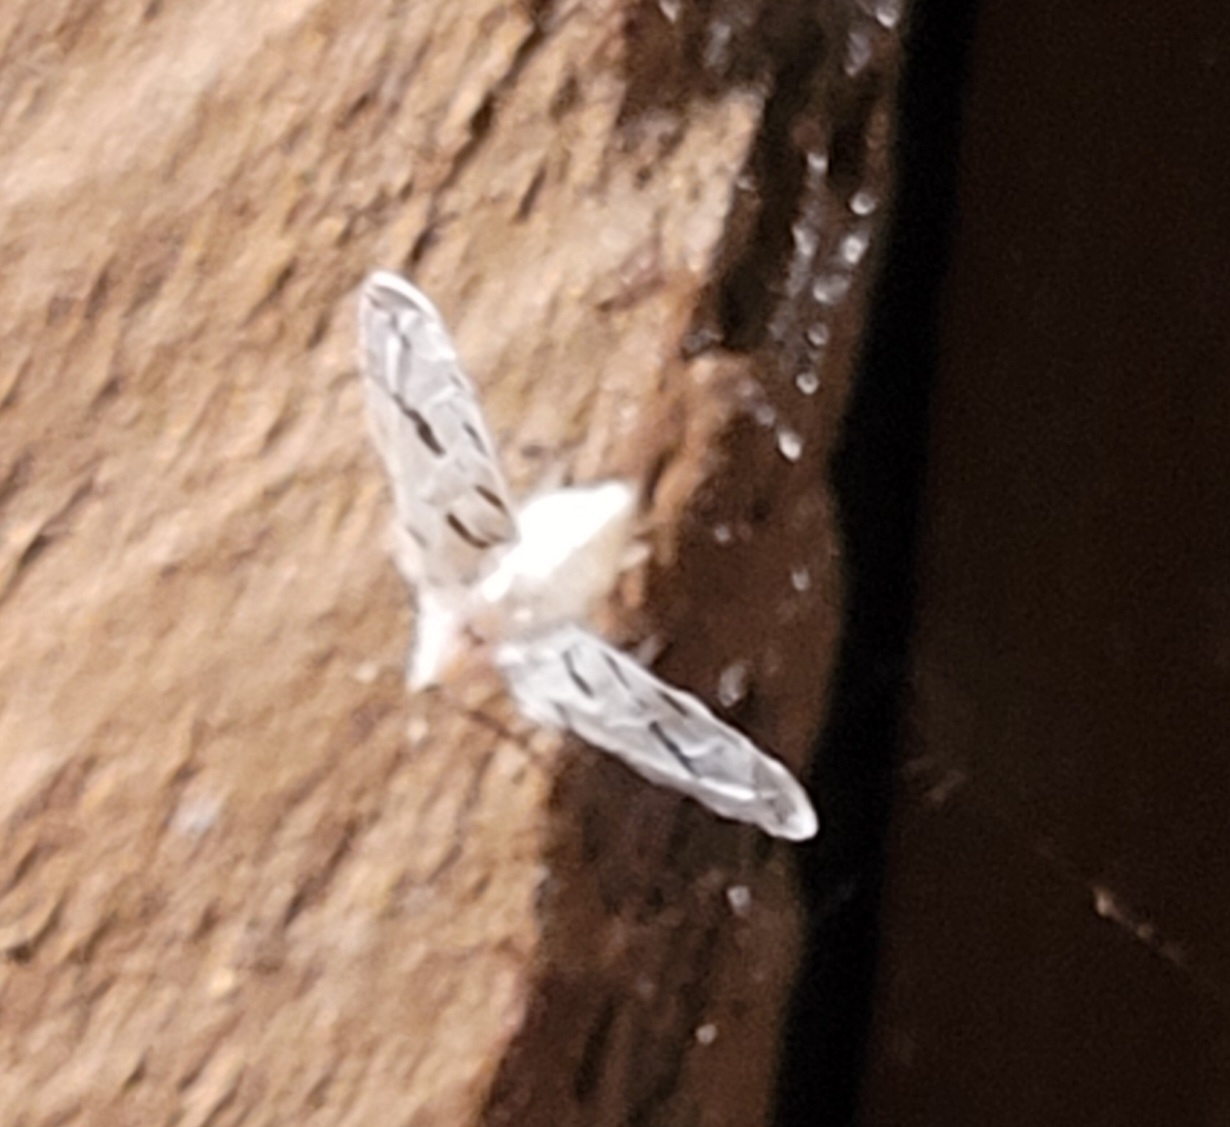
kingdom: Animalia
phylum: Arthropoda
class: Insecta
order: Hemiptera
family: Derbidae
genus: Sikaiana
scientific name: Sikaiana harti
